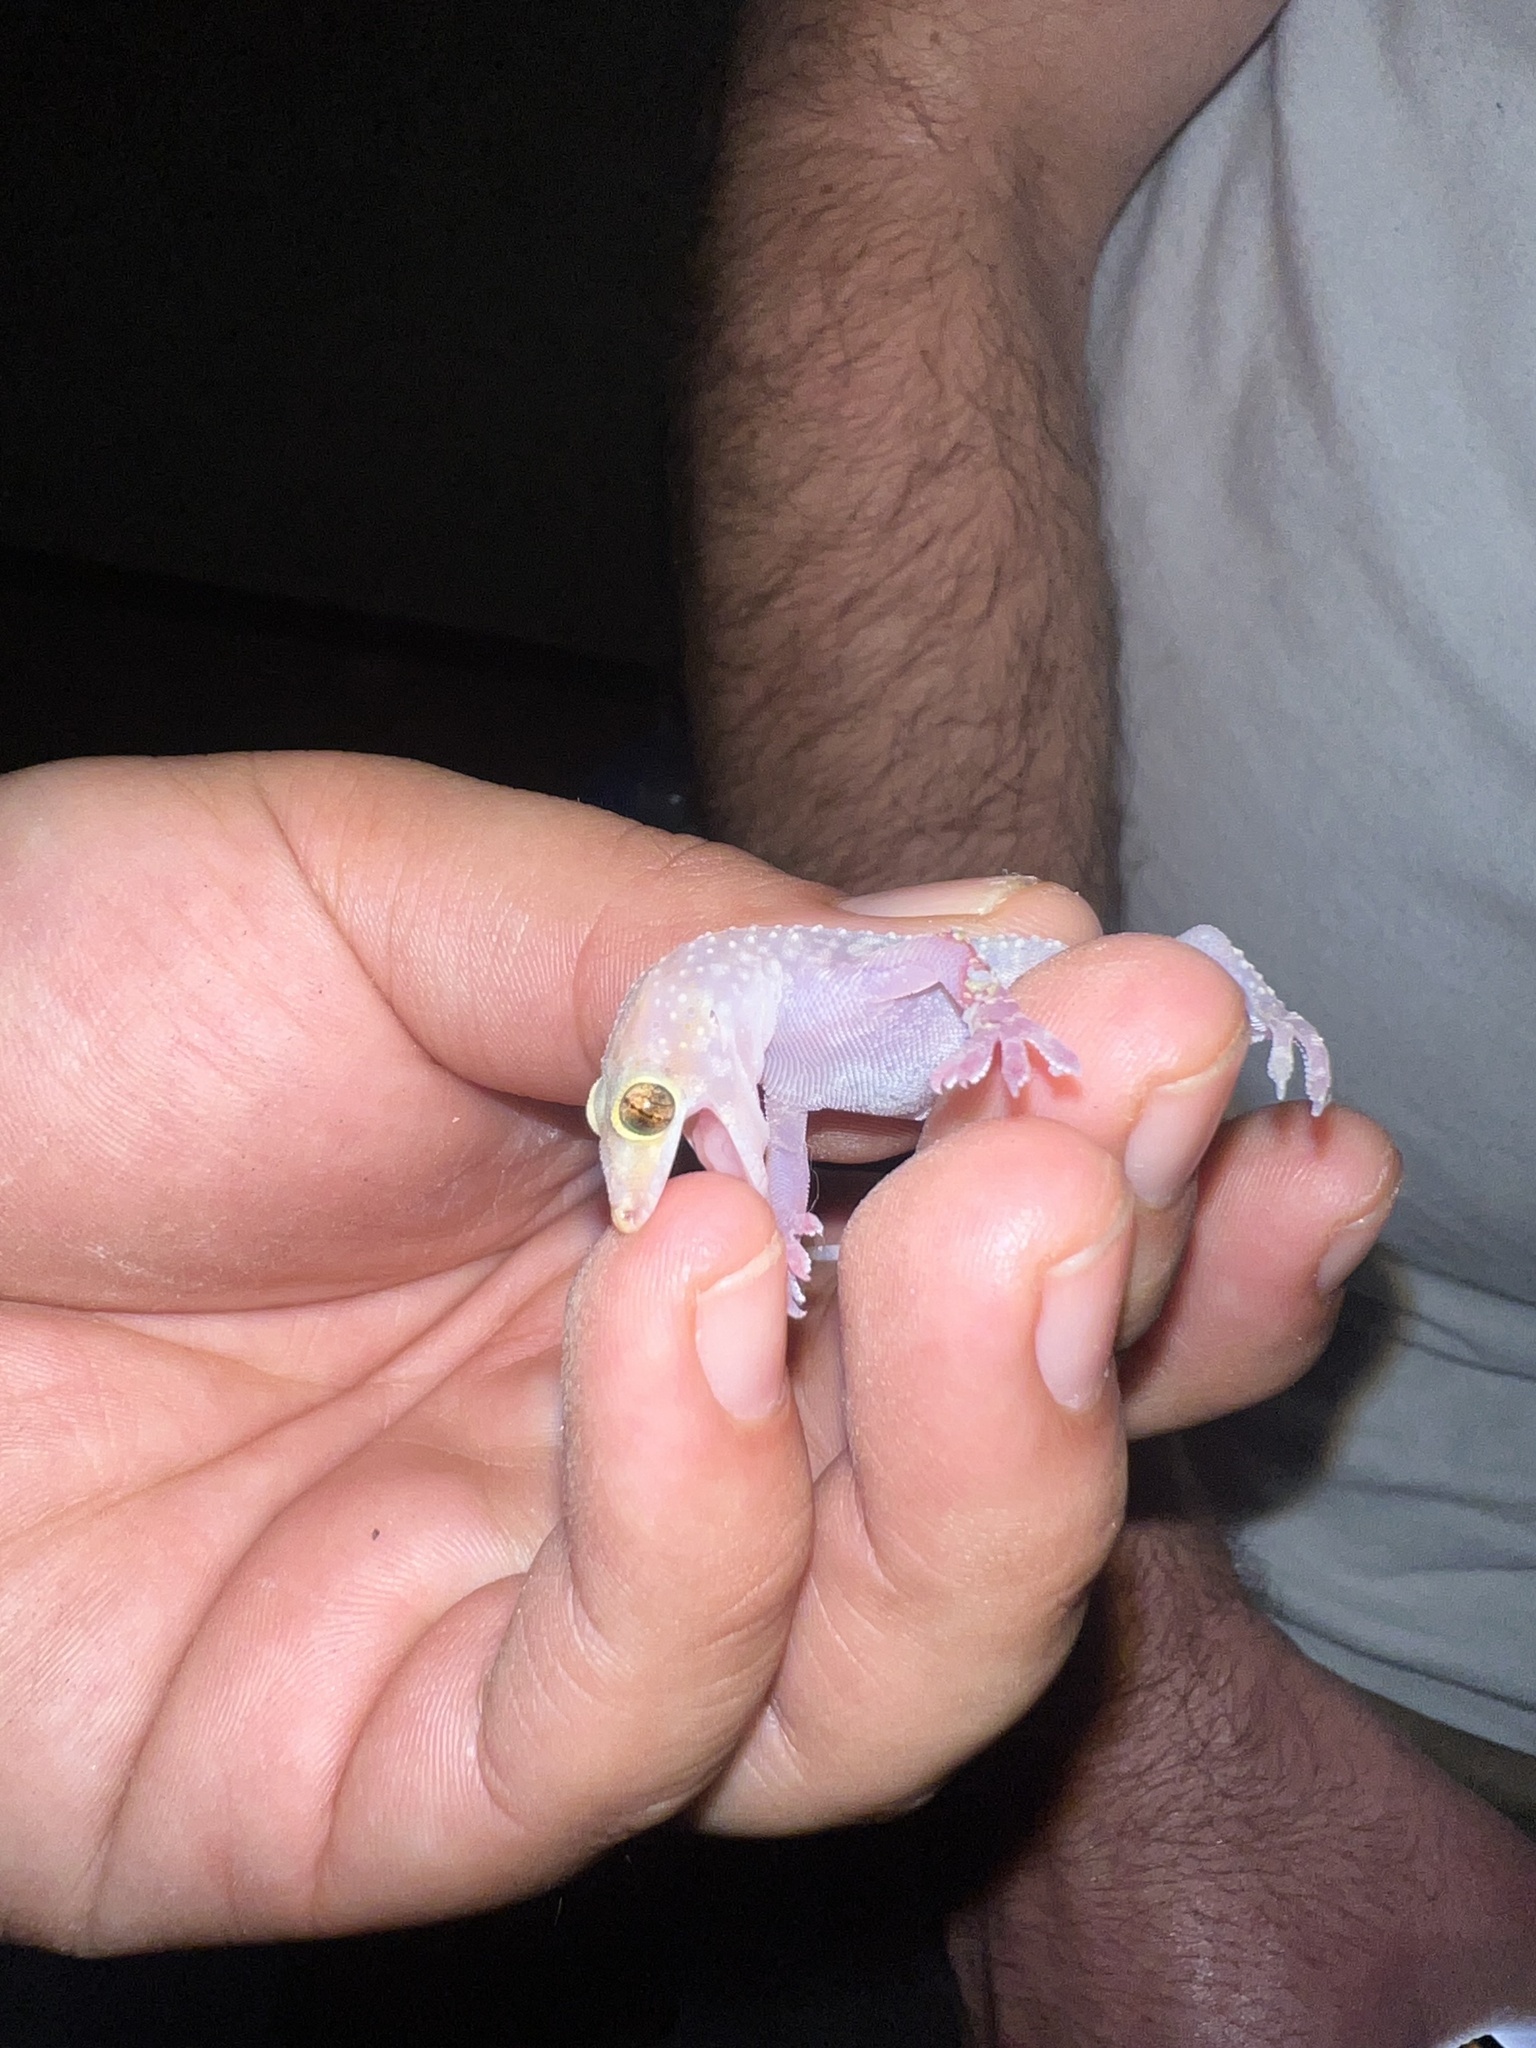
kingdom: Animalia
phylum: Chordata
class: Squamata
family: Gekkonidae
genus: Hemidactylus
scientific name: Hemidactylus turcicus
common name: Turkish gecko
